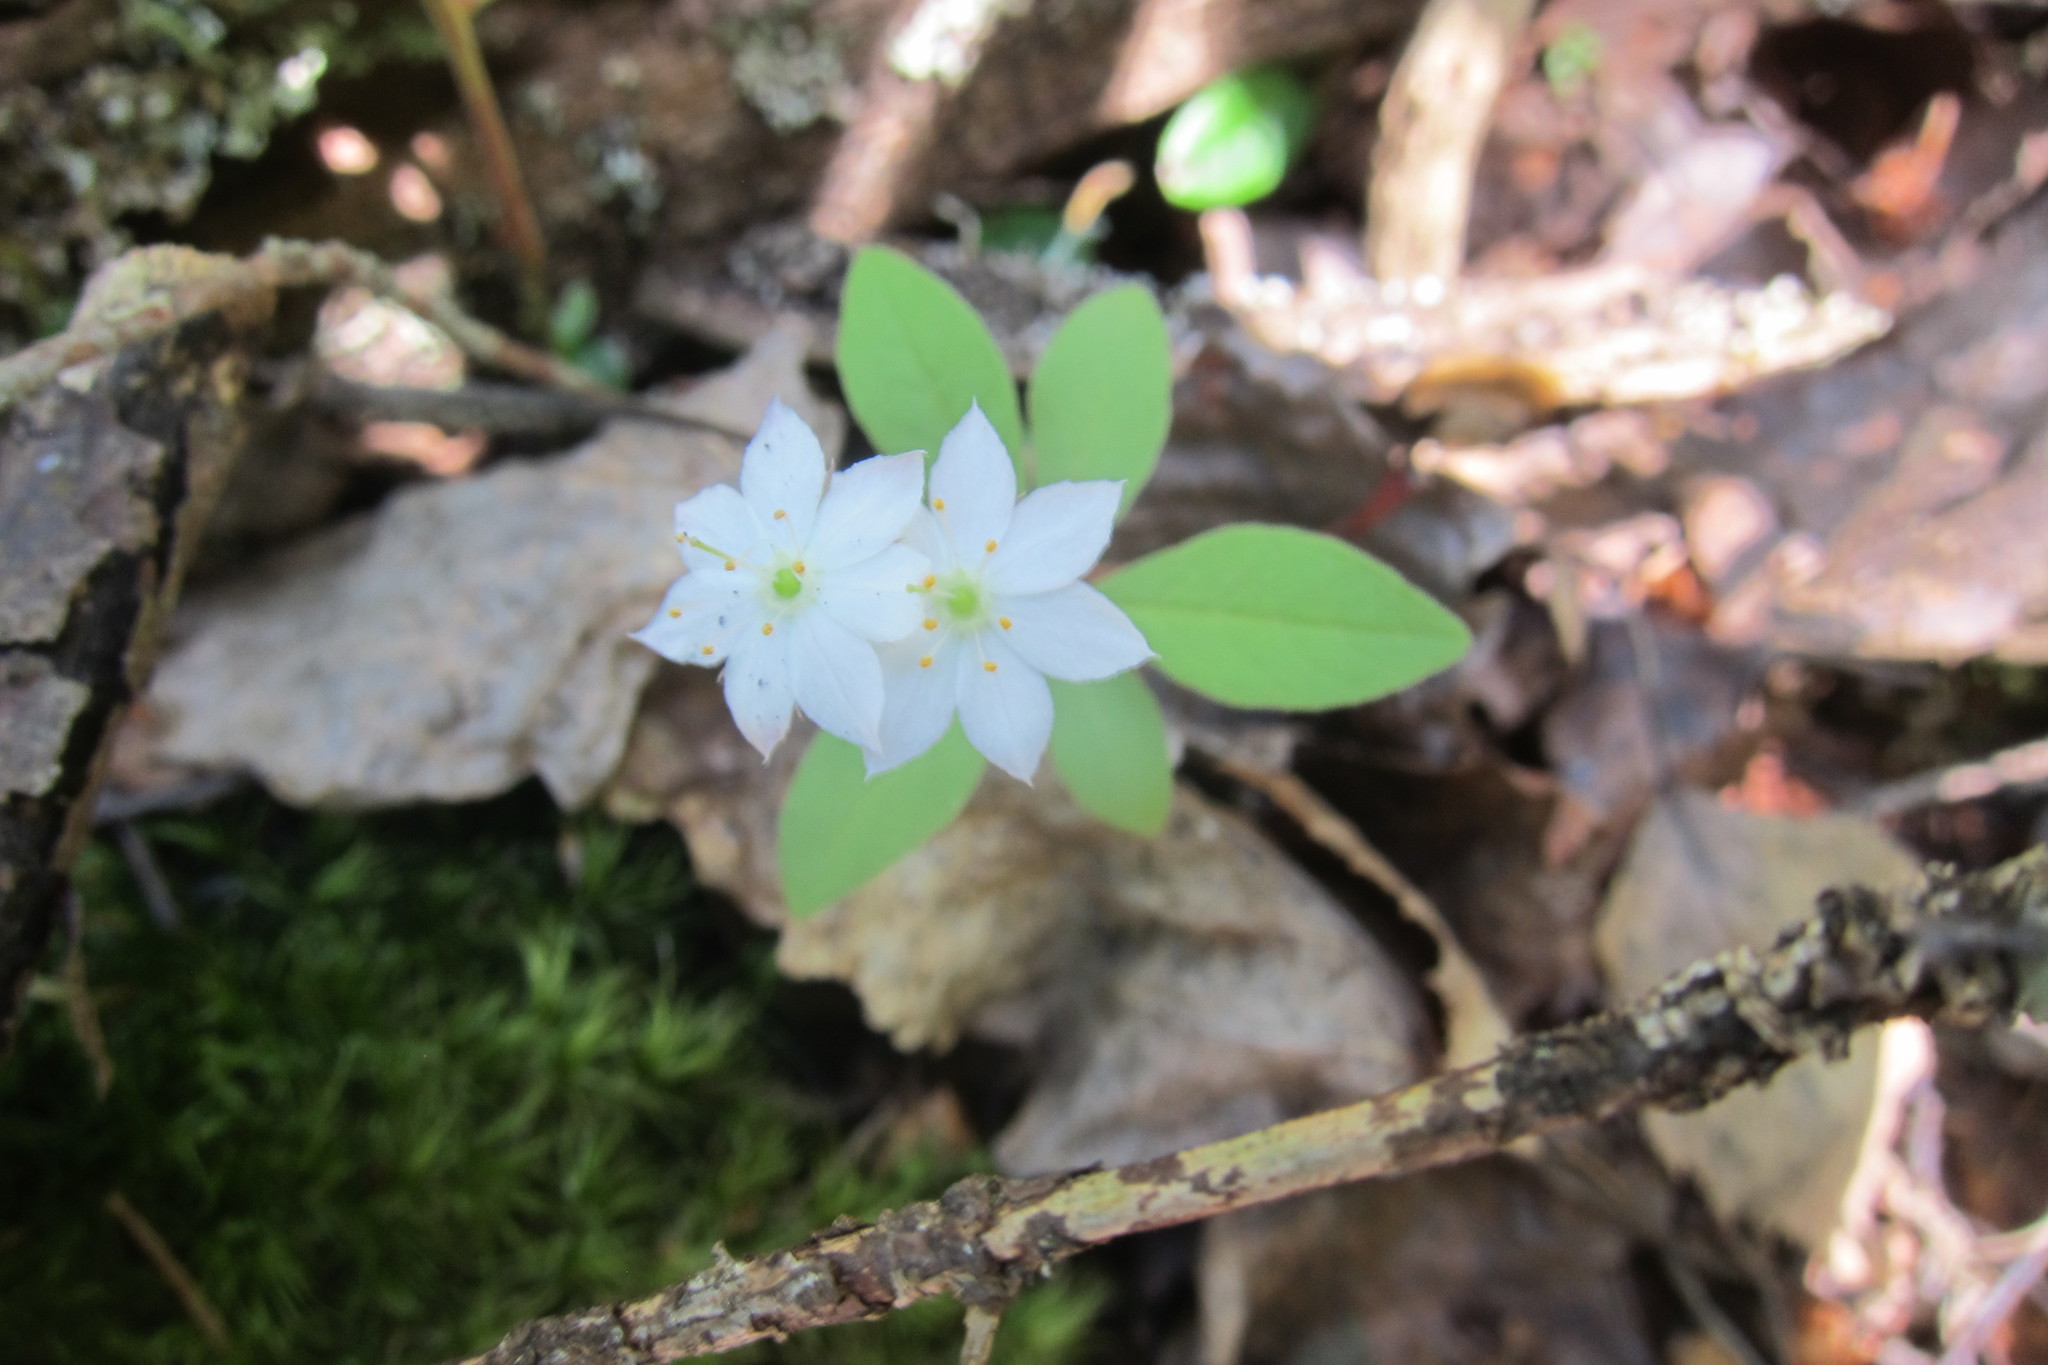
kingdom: Plantae
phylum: Tracheophyta
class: Magnoliopsida
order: Ericales
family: Primulaceae
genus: Lysimachia
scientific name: Lysimachia europaea
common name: Arctic starflower
